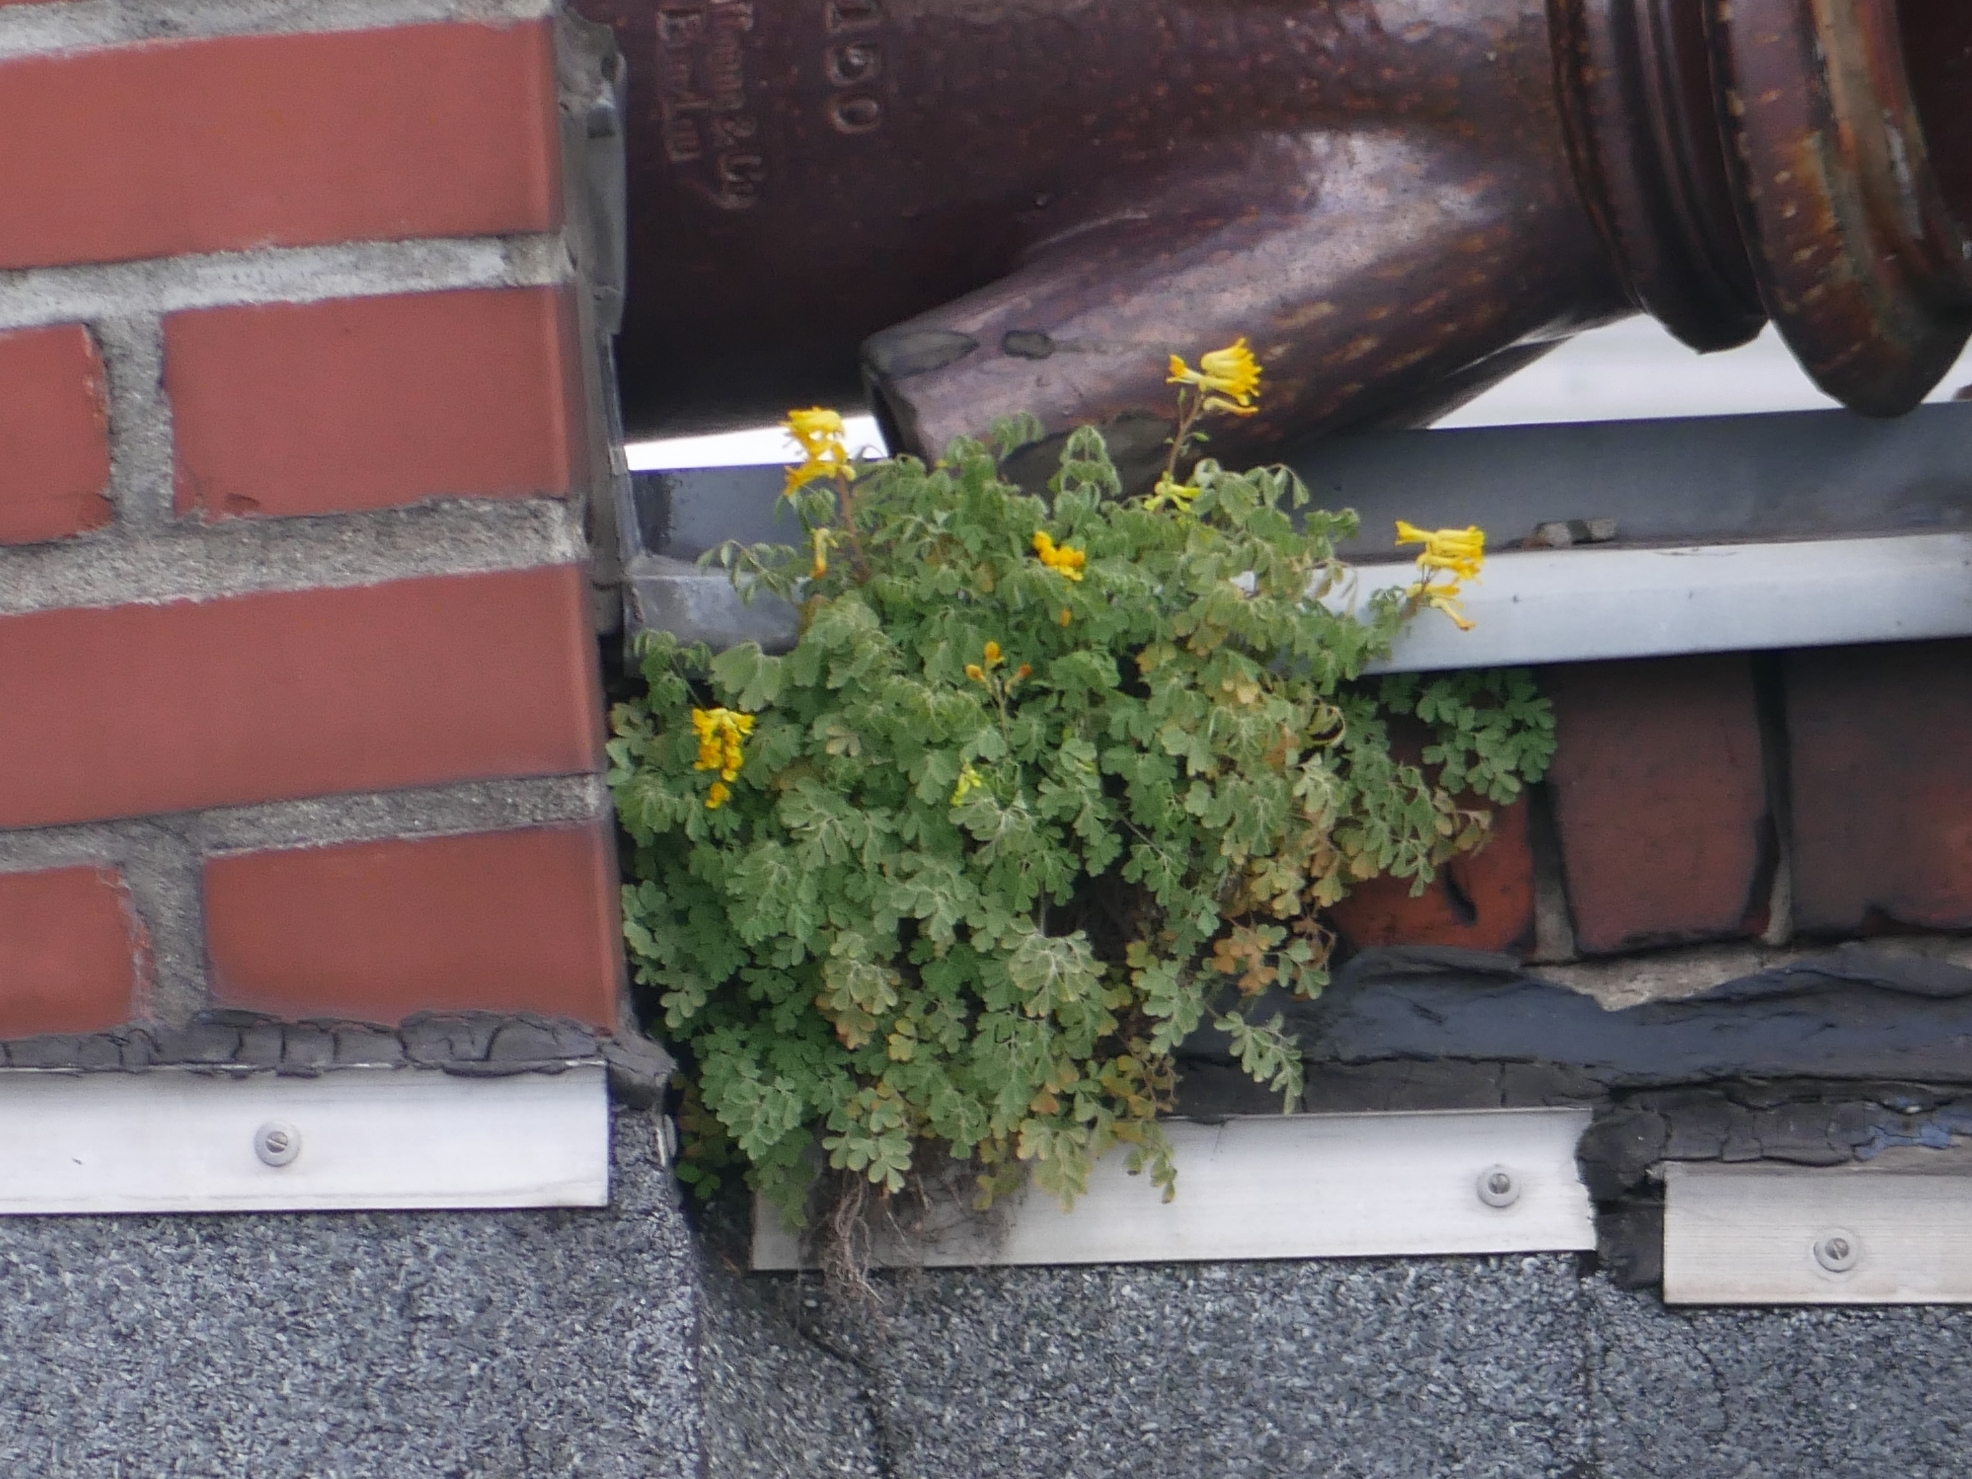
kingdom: Plantae
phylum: Tracheophyta
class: Magnoliopsida
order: Ranunculales
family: Papaveraceae
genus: Pseudofumaria
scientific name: Pseudofumaria lutea
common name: Yellow corydalis
